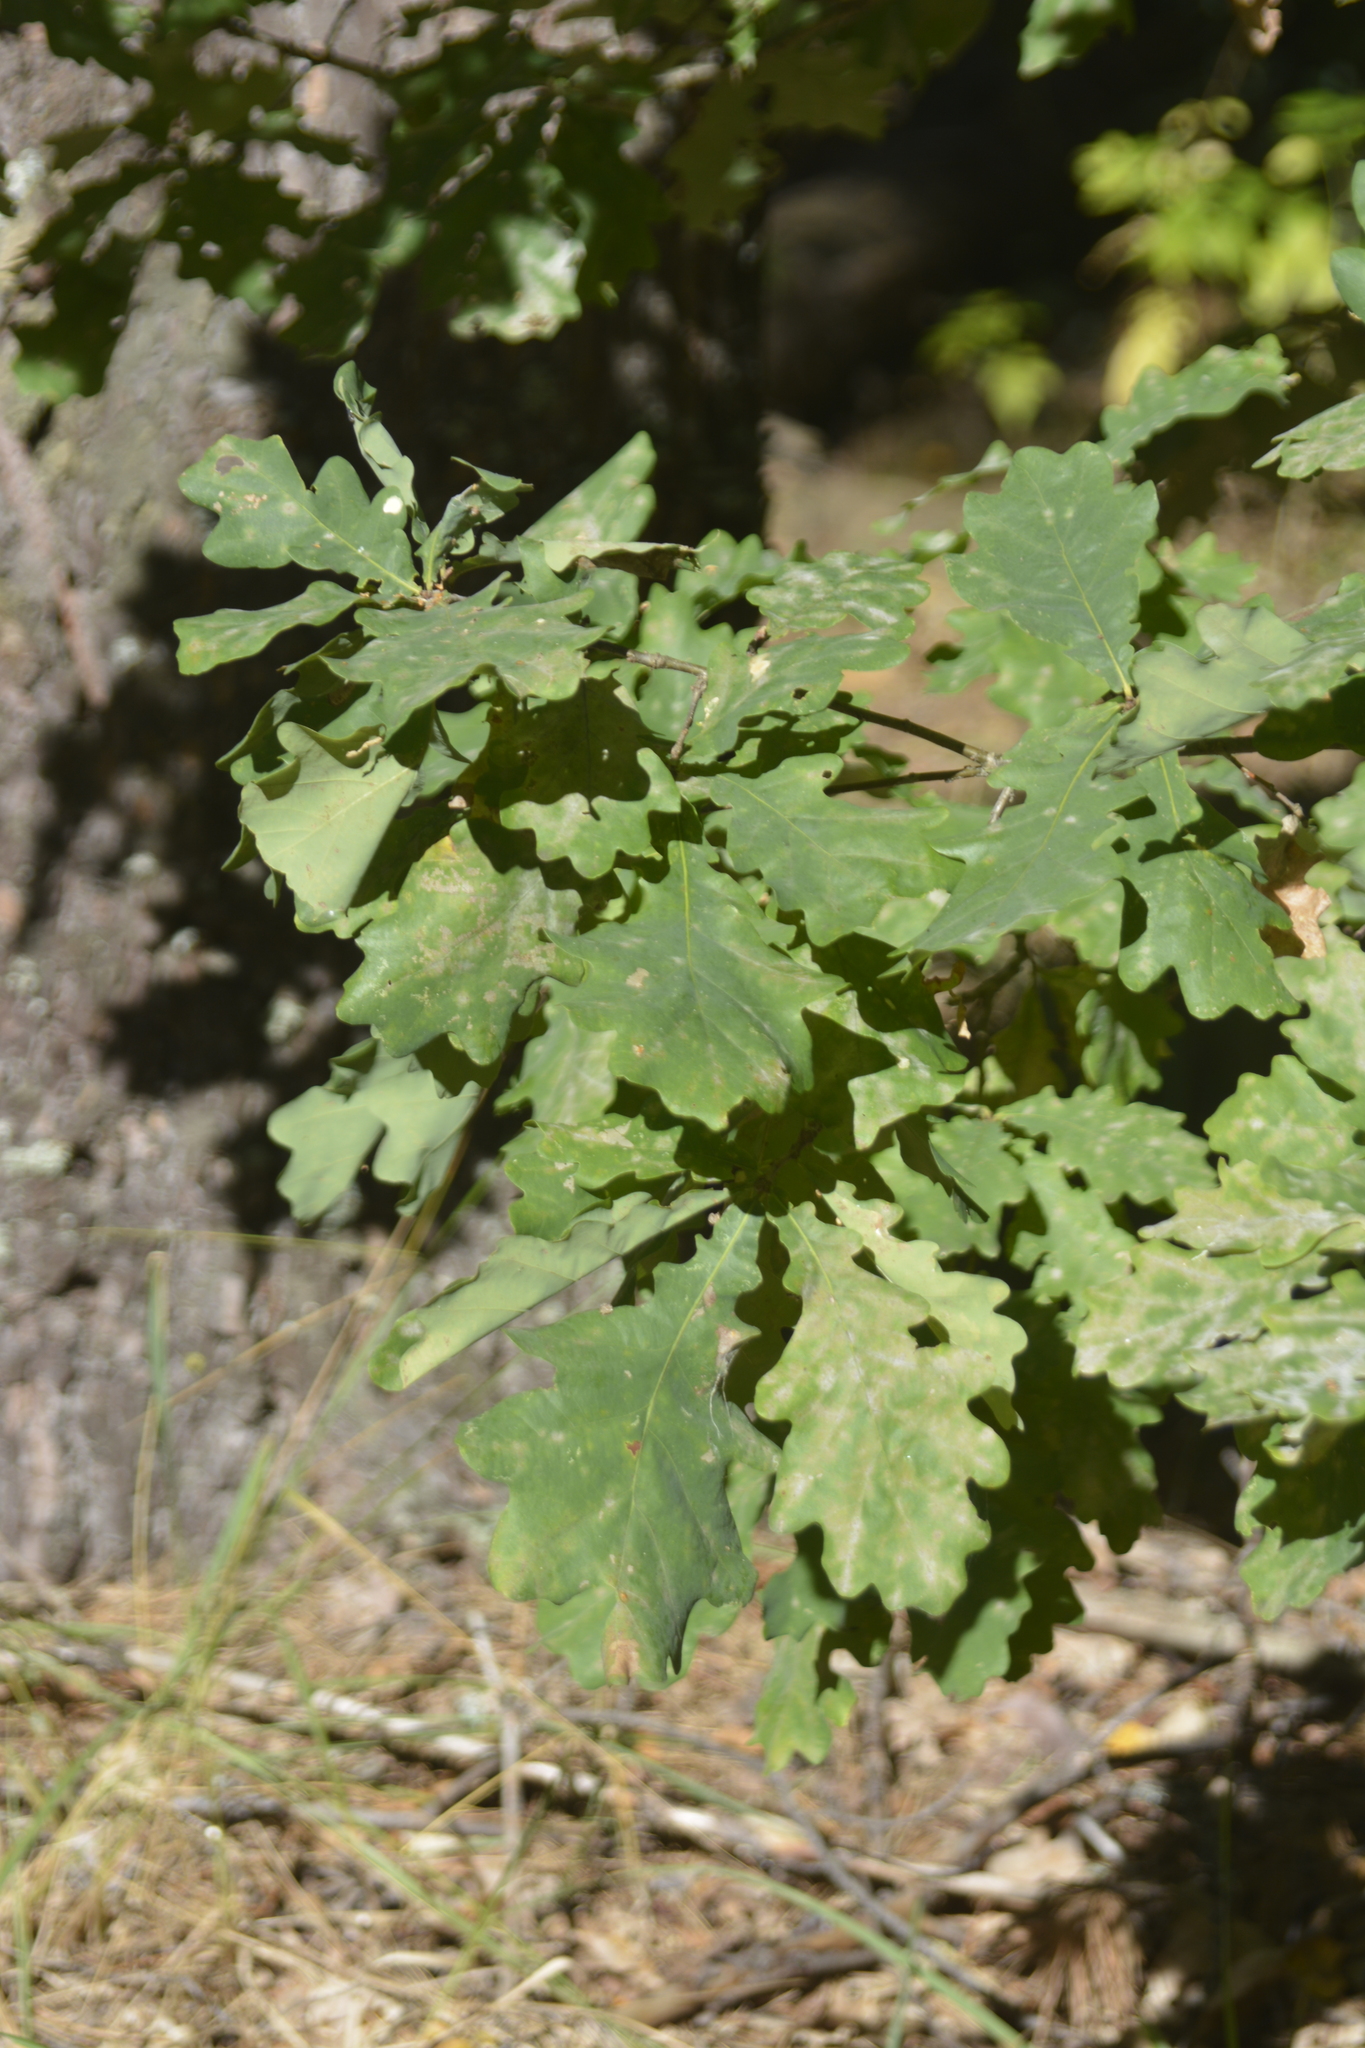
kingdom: Plantae
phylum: Tracheophyta
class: Magnoliopsida
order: Fagales
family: Fagaceae
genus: Quercus
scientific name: Quercus robur
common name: Pedunculate oak
